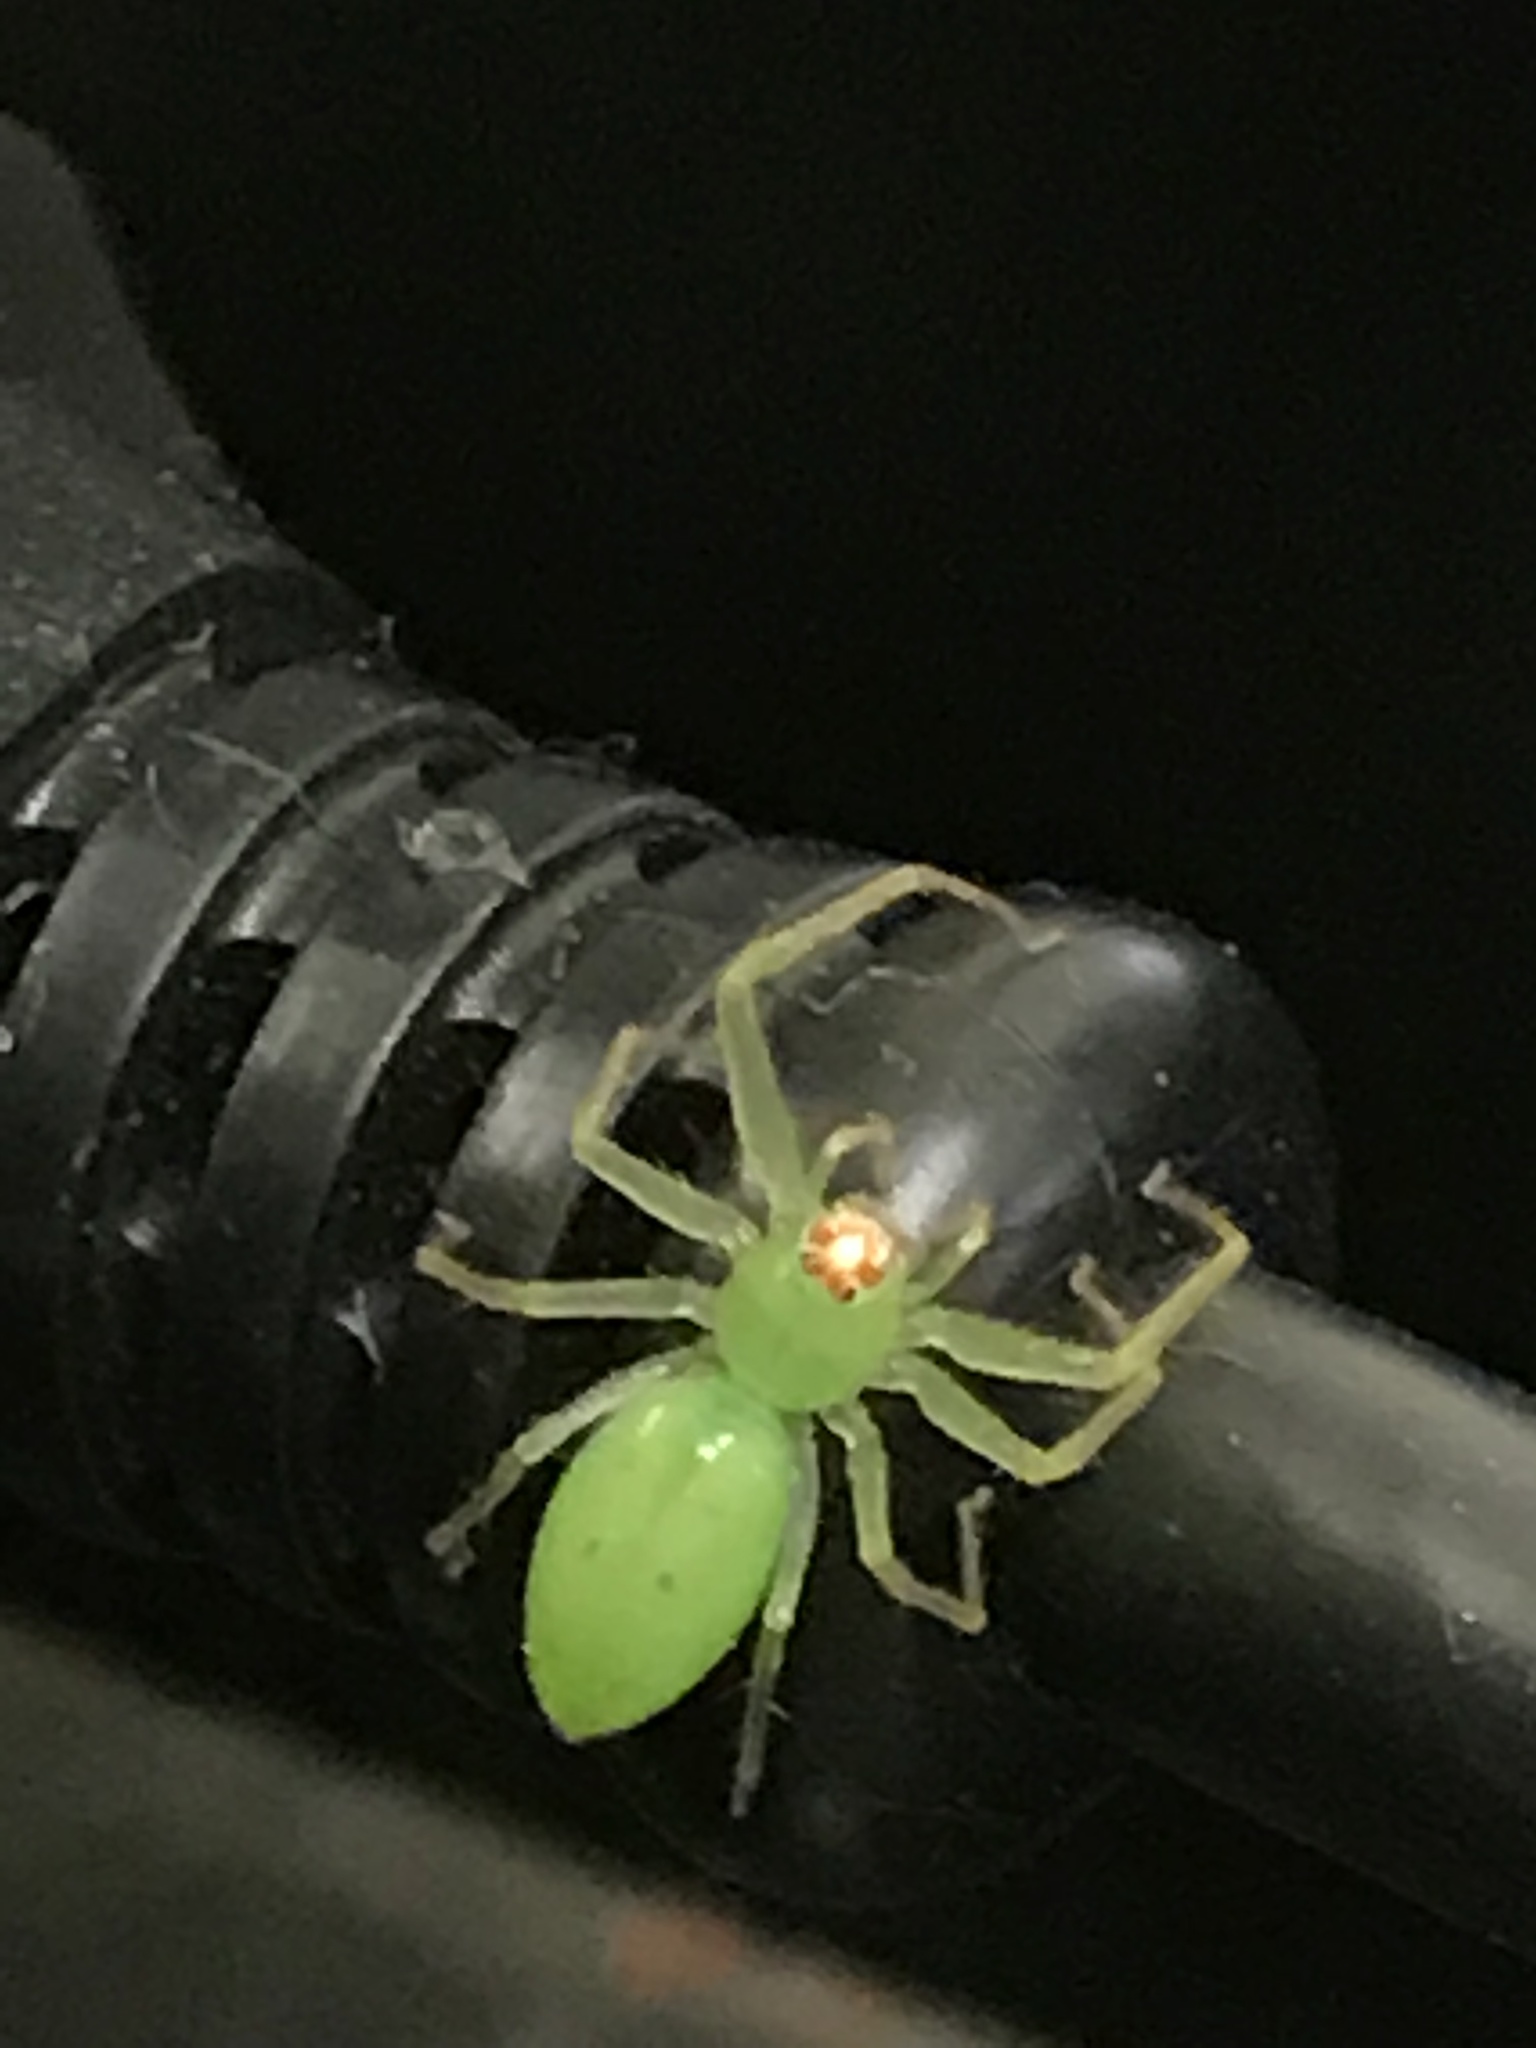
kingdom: Animalia
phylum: Arthropoda
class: Arachnida
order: Araneae
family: Salticidae
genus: Lyssomanes
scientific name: Lyssomanes viridis
